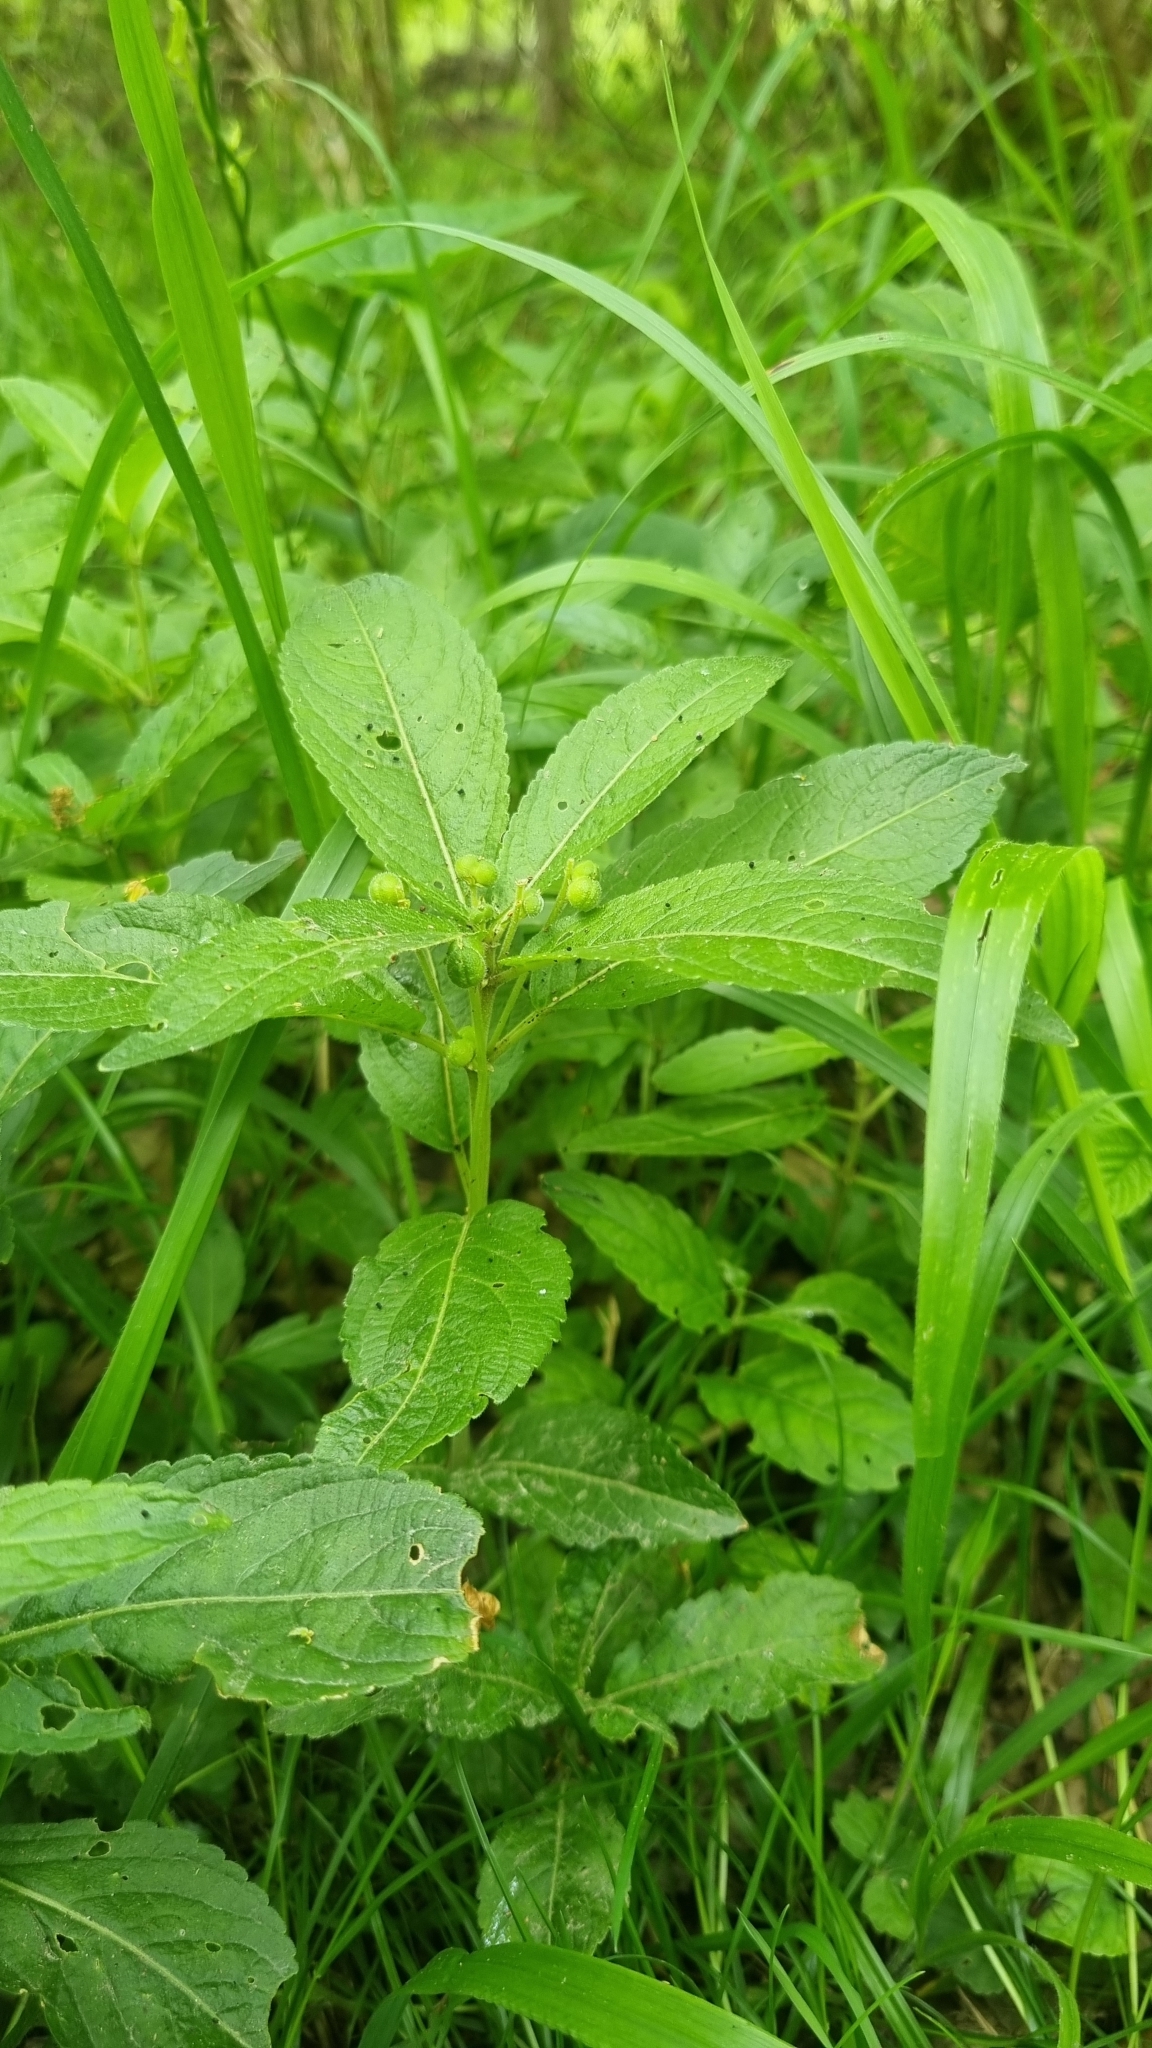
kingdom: Plantae
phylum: Tracheophyta
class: Magnoliopsida
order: Malpighiales
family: Euphorbiaceae
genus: Mercurialis
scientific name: Mercurialis perennis
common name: Dog mercury
